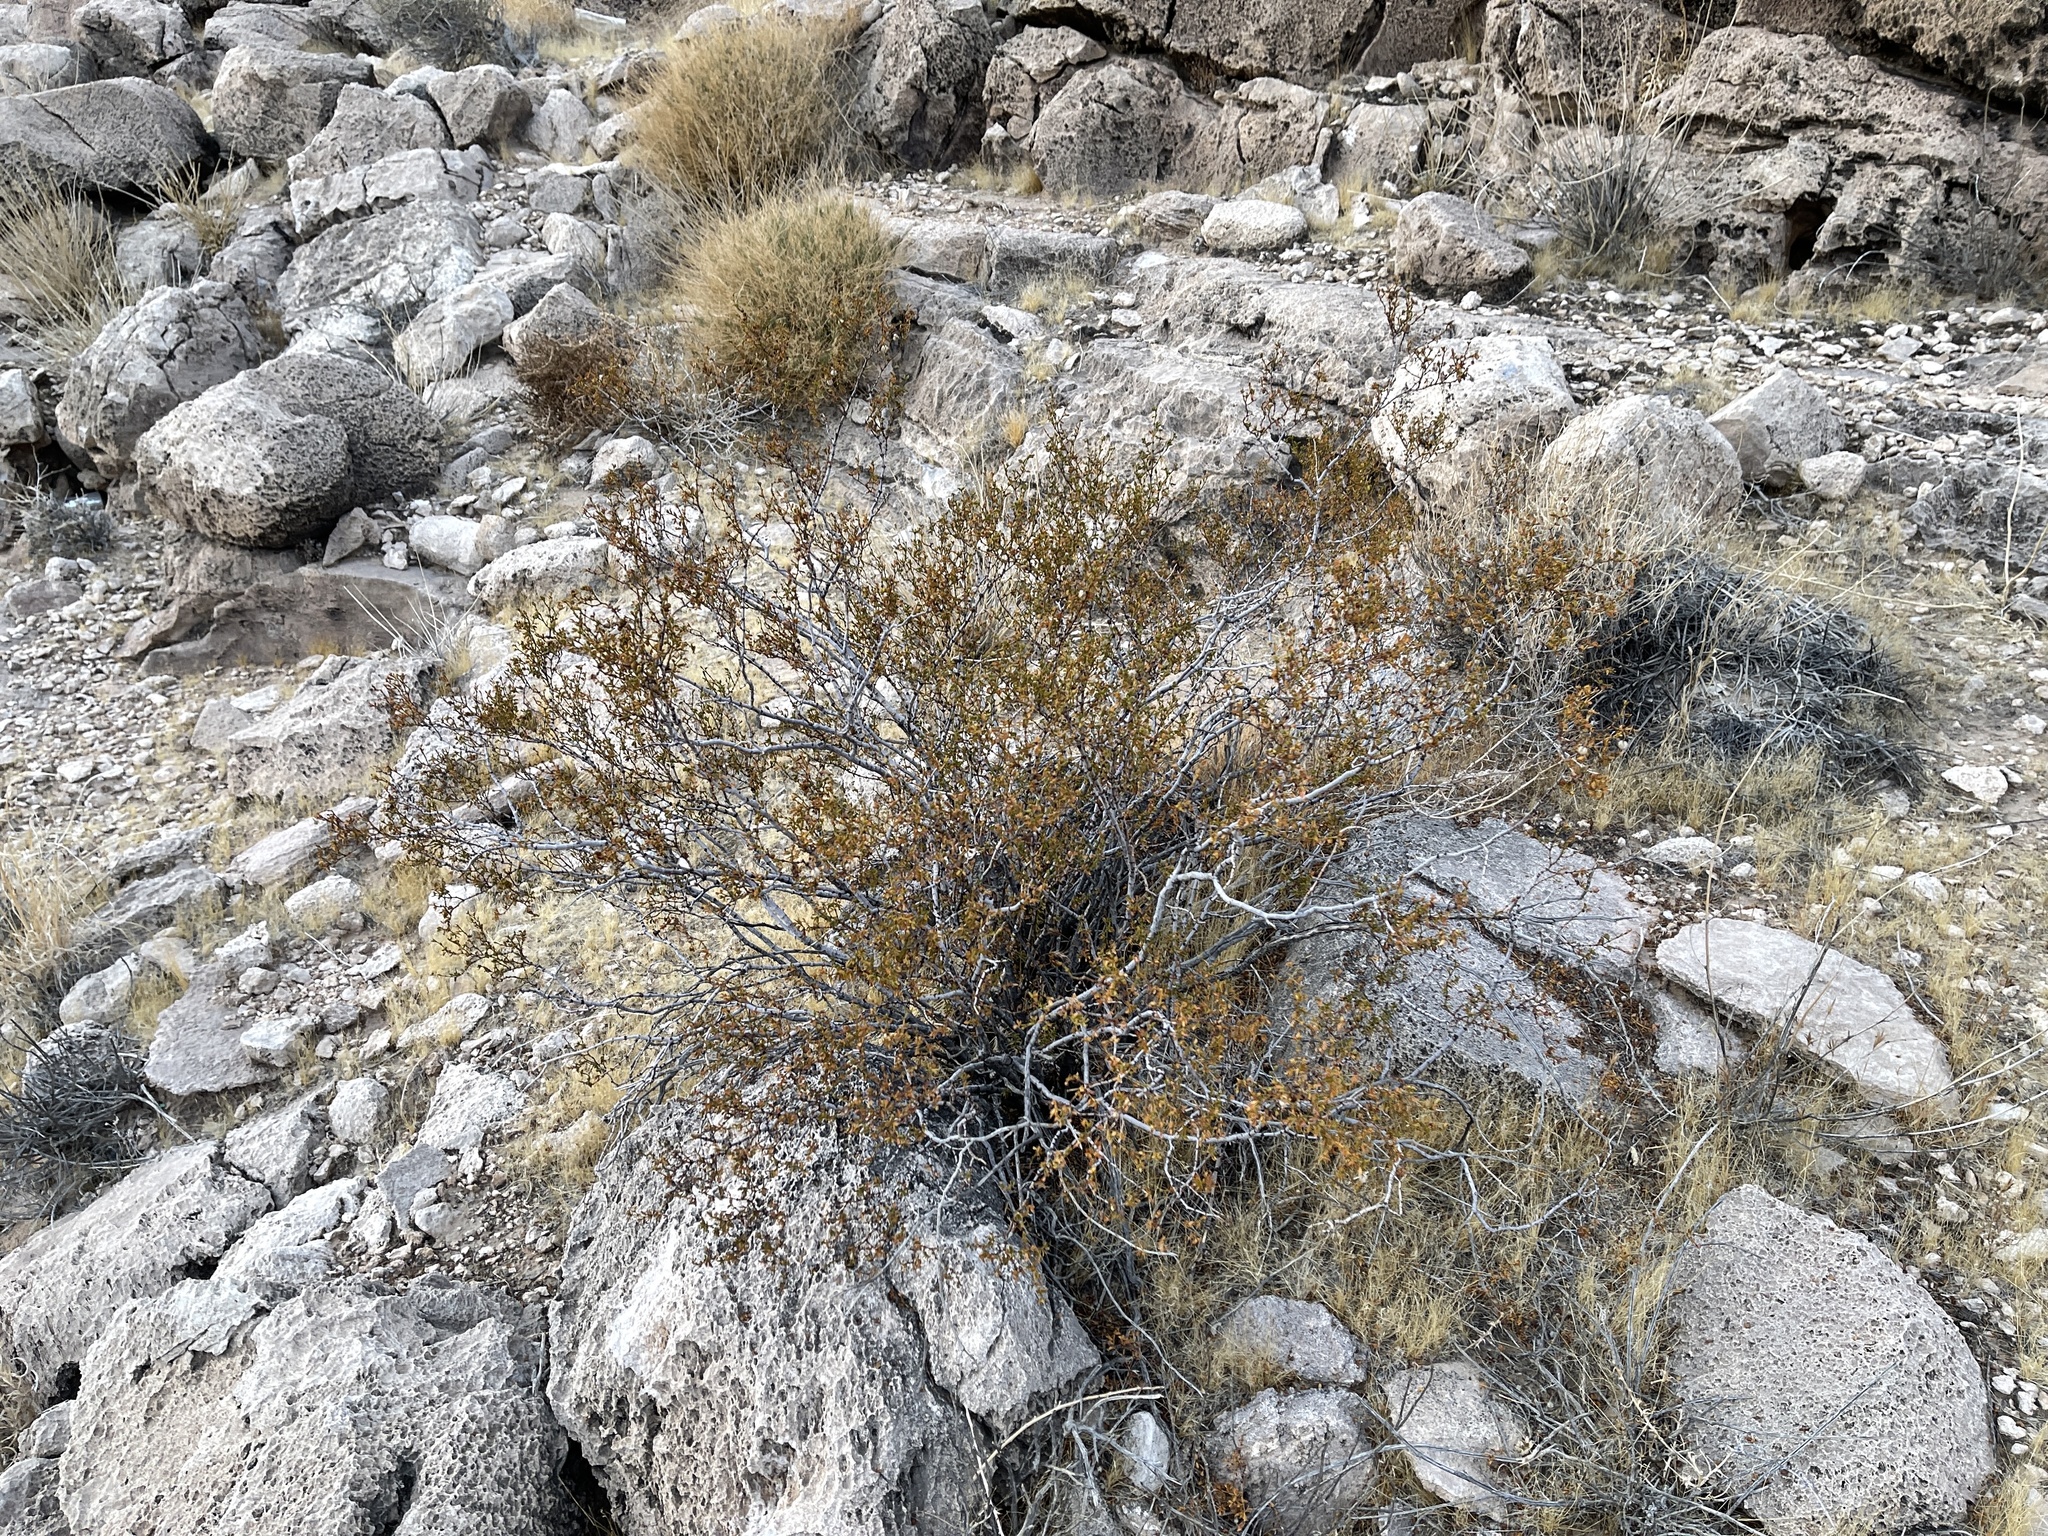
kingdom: Plantae
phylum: Tracheophyta
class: Magnoliopsida
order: Zygophyllales
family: Zygophyllaceae
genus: Larrea
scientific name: Larrea tridentata
